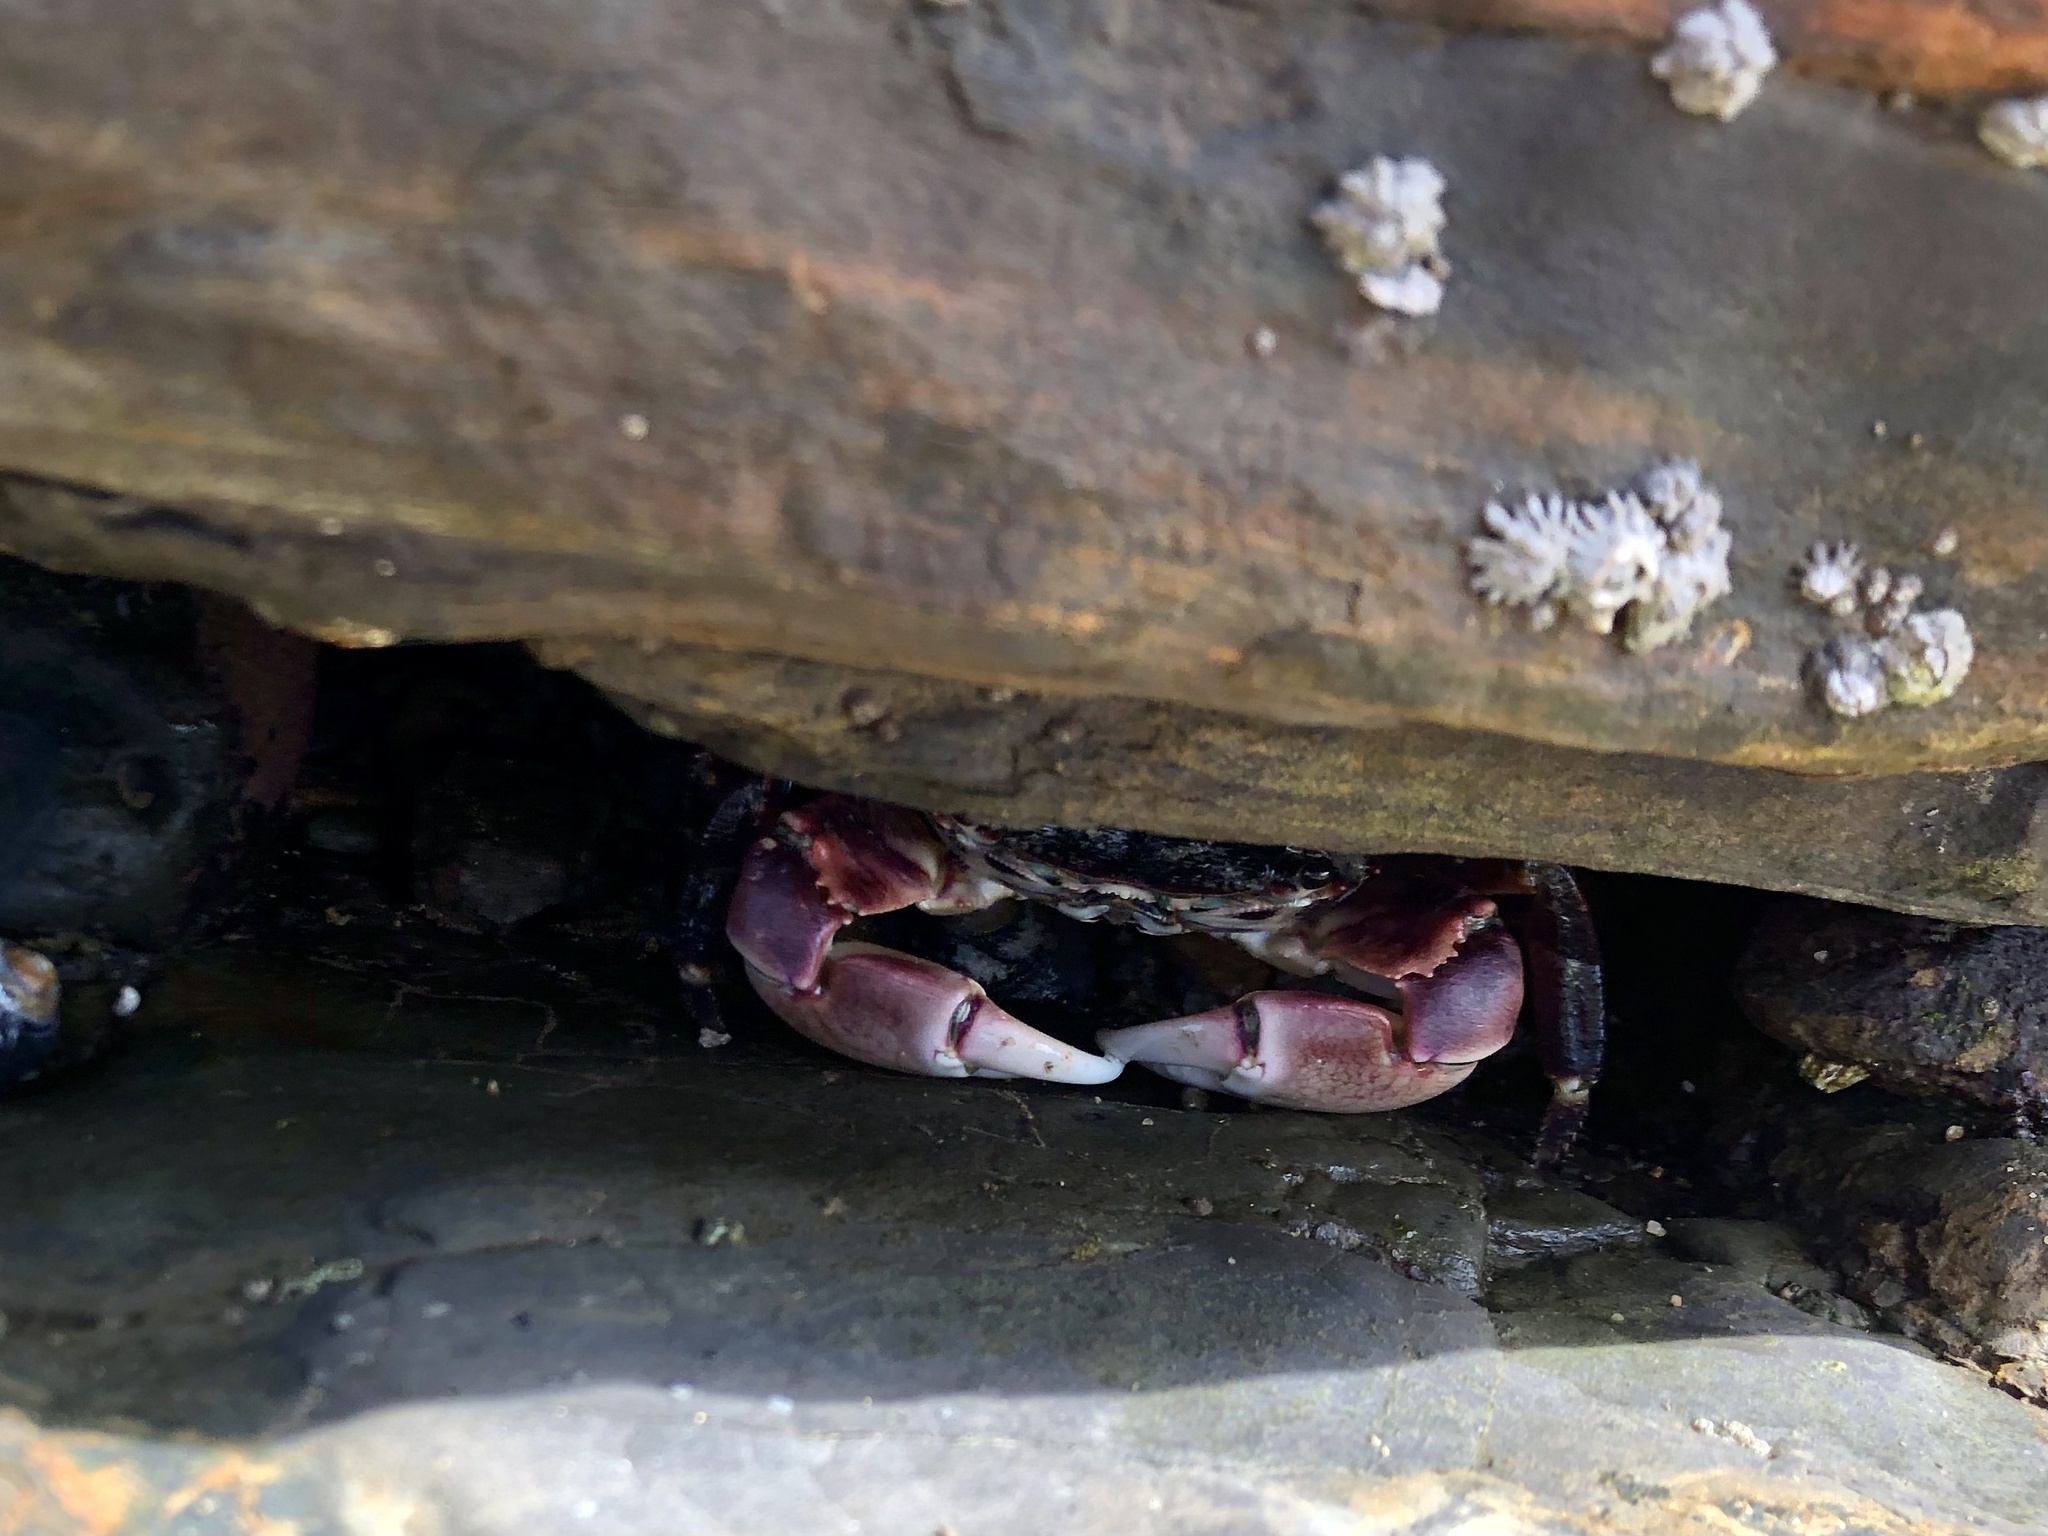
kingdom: Animalia
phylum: Arthropoda
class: Malacostraca
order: Decapoda
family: Grapsidae
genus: Pachygrapsus
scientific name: Pachygrapsus crassipes
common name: Striped shore crab
